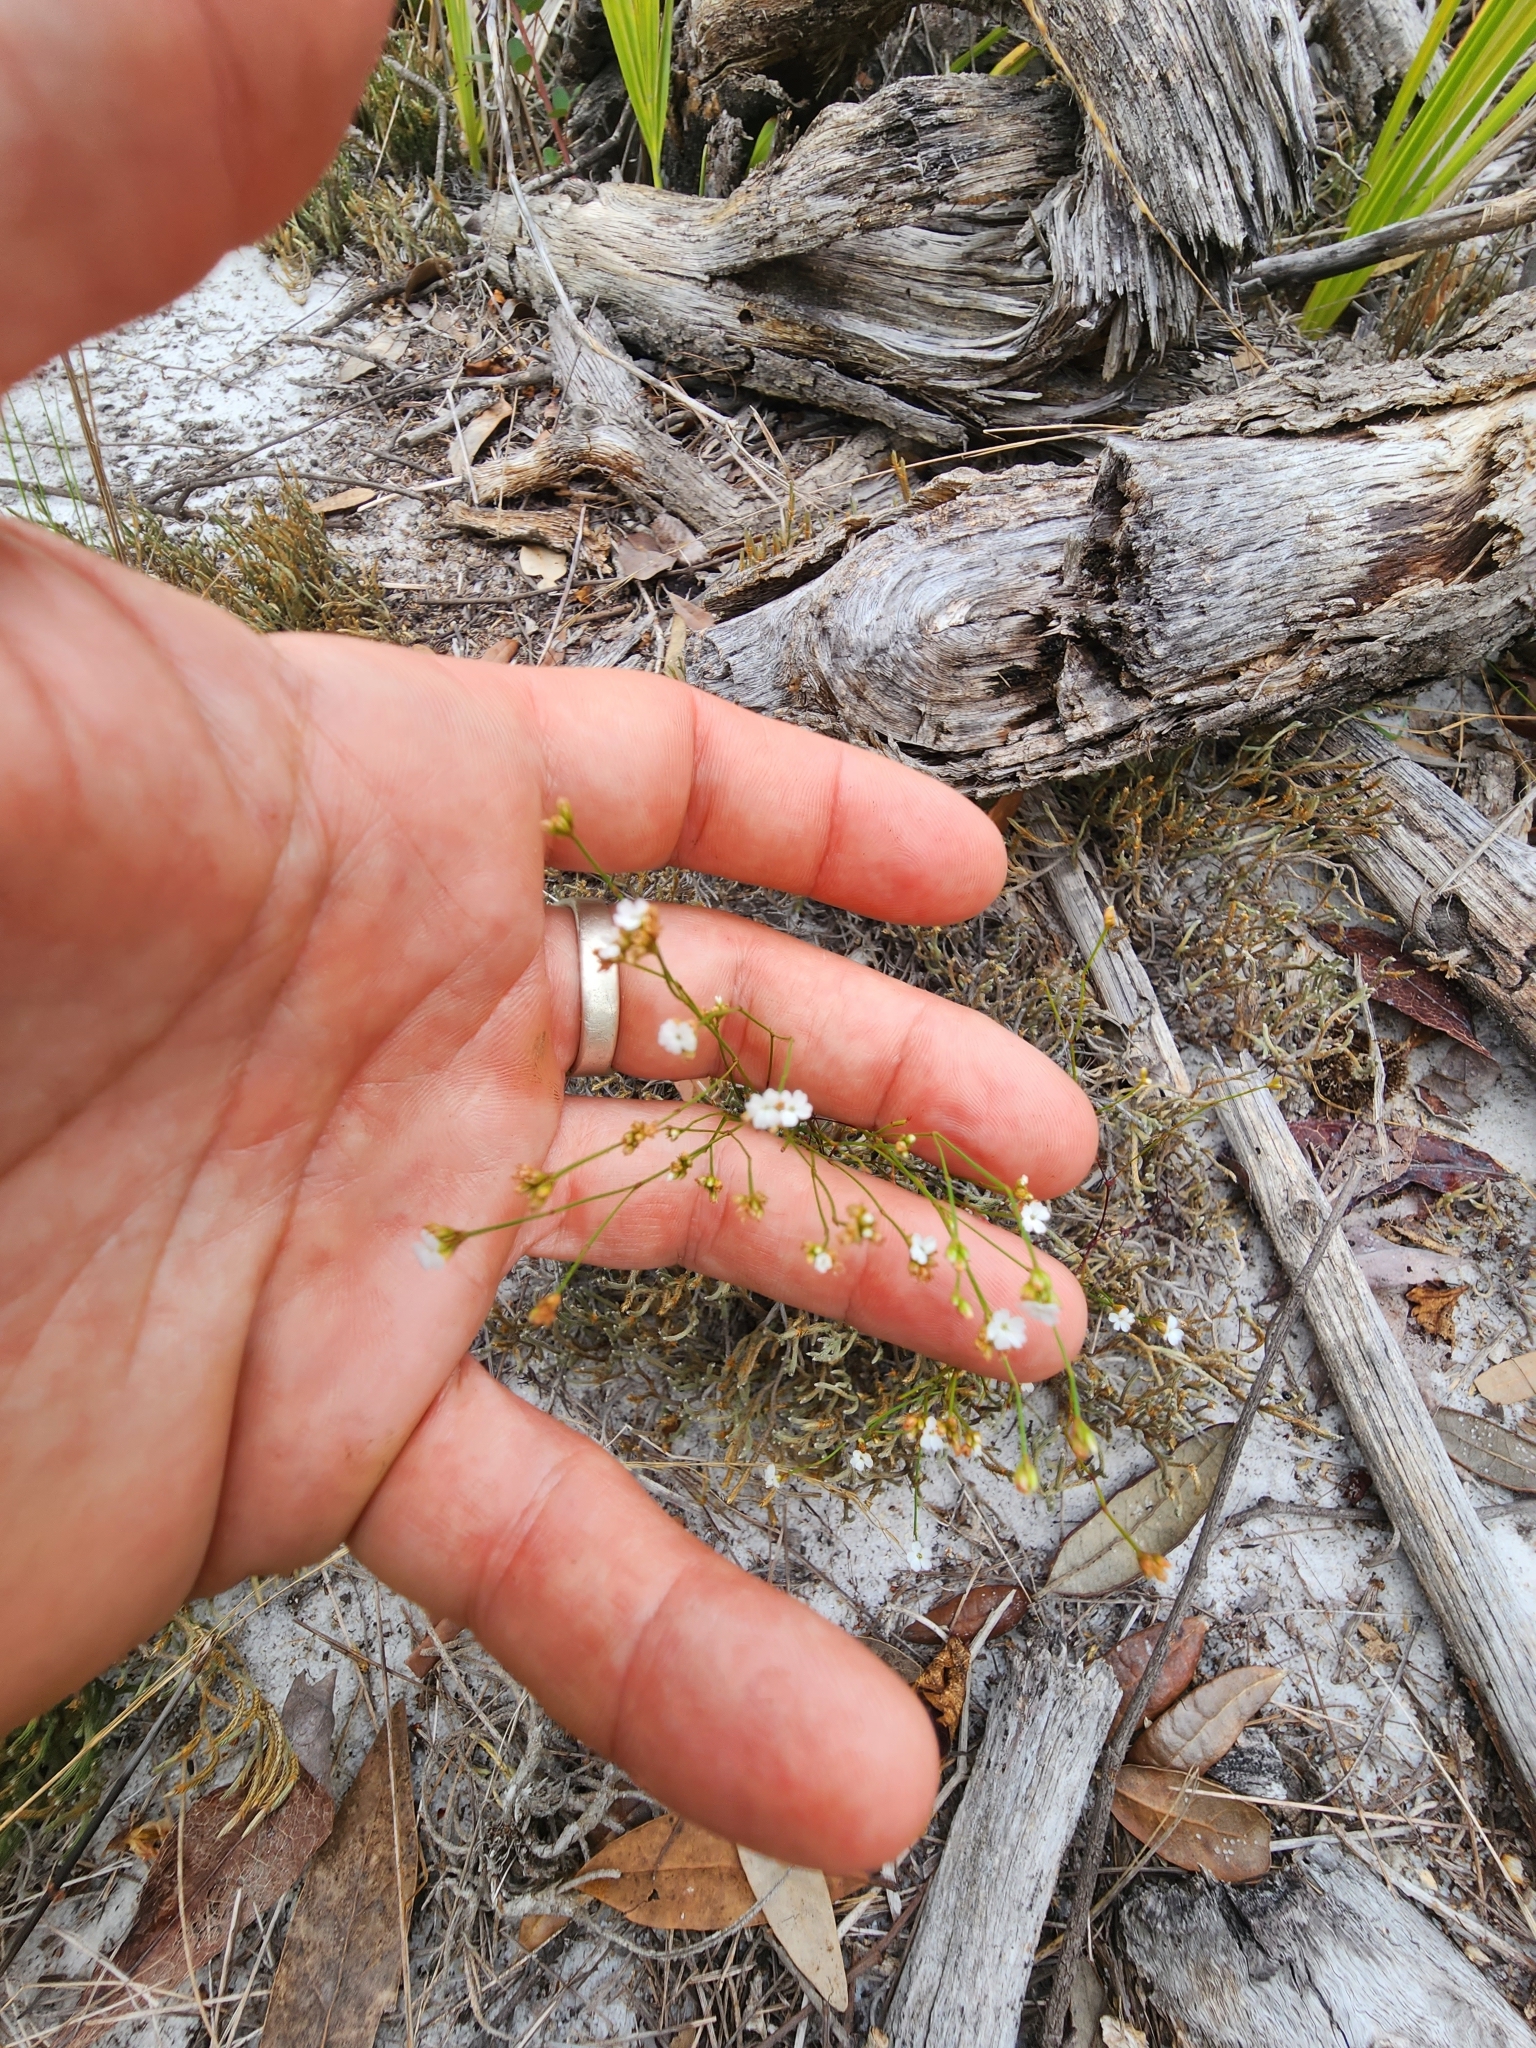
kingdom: Plantae
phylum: Tracheophyta
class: Magnoliopsida
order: Caryophyllales
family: Caryophyllaceae
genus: Stipulicida
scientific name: Stipulicida setacea
